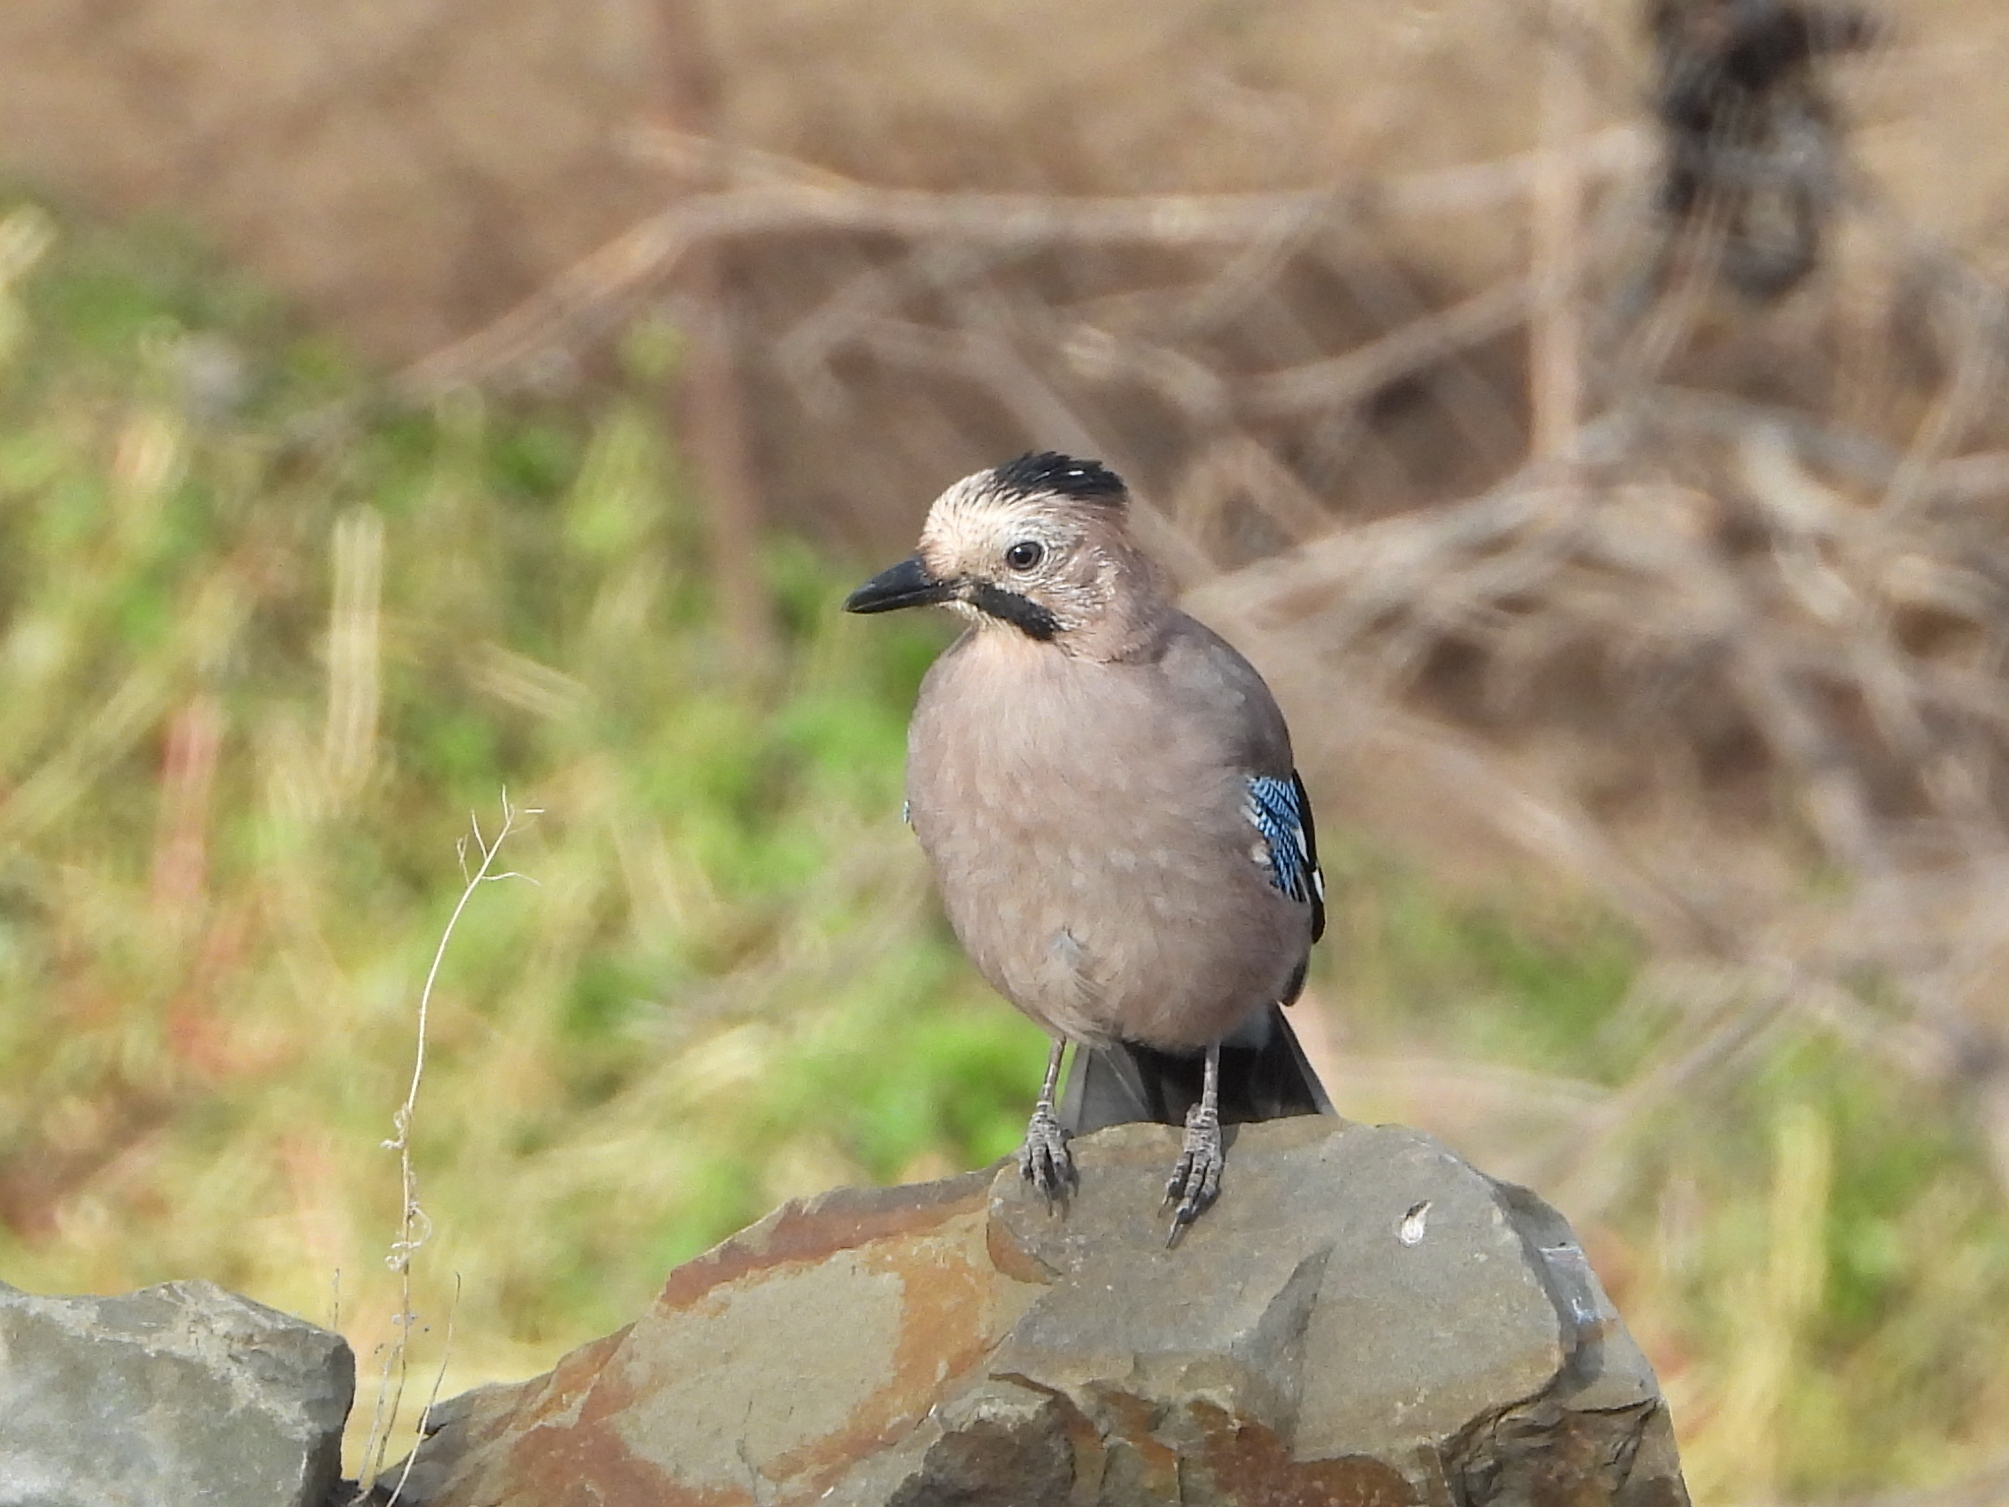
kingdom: Animalia
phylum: Chordata
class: Aves
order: Passeriformes
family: Corvidae
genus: Garrulus
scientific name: Garrulus glandarius
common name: Eurasian jay
